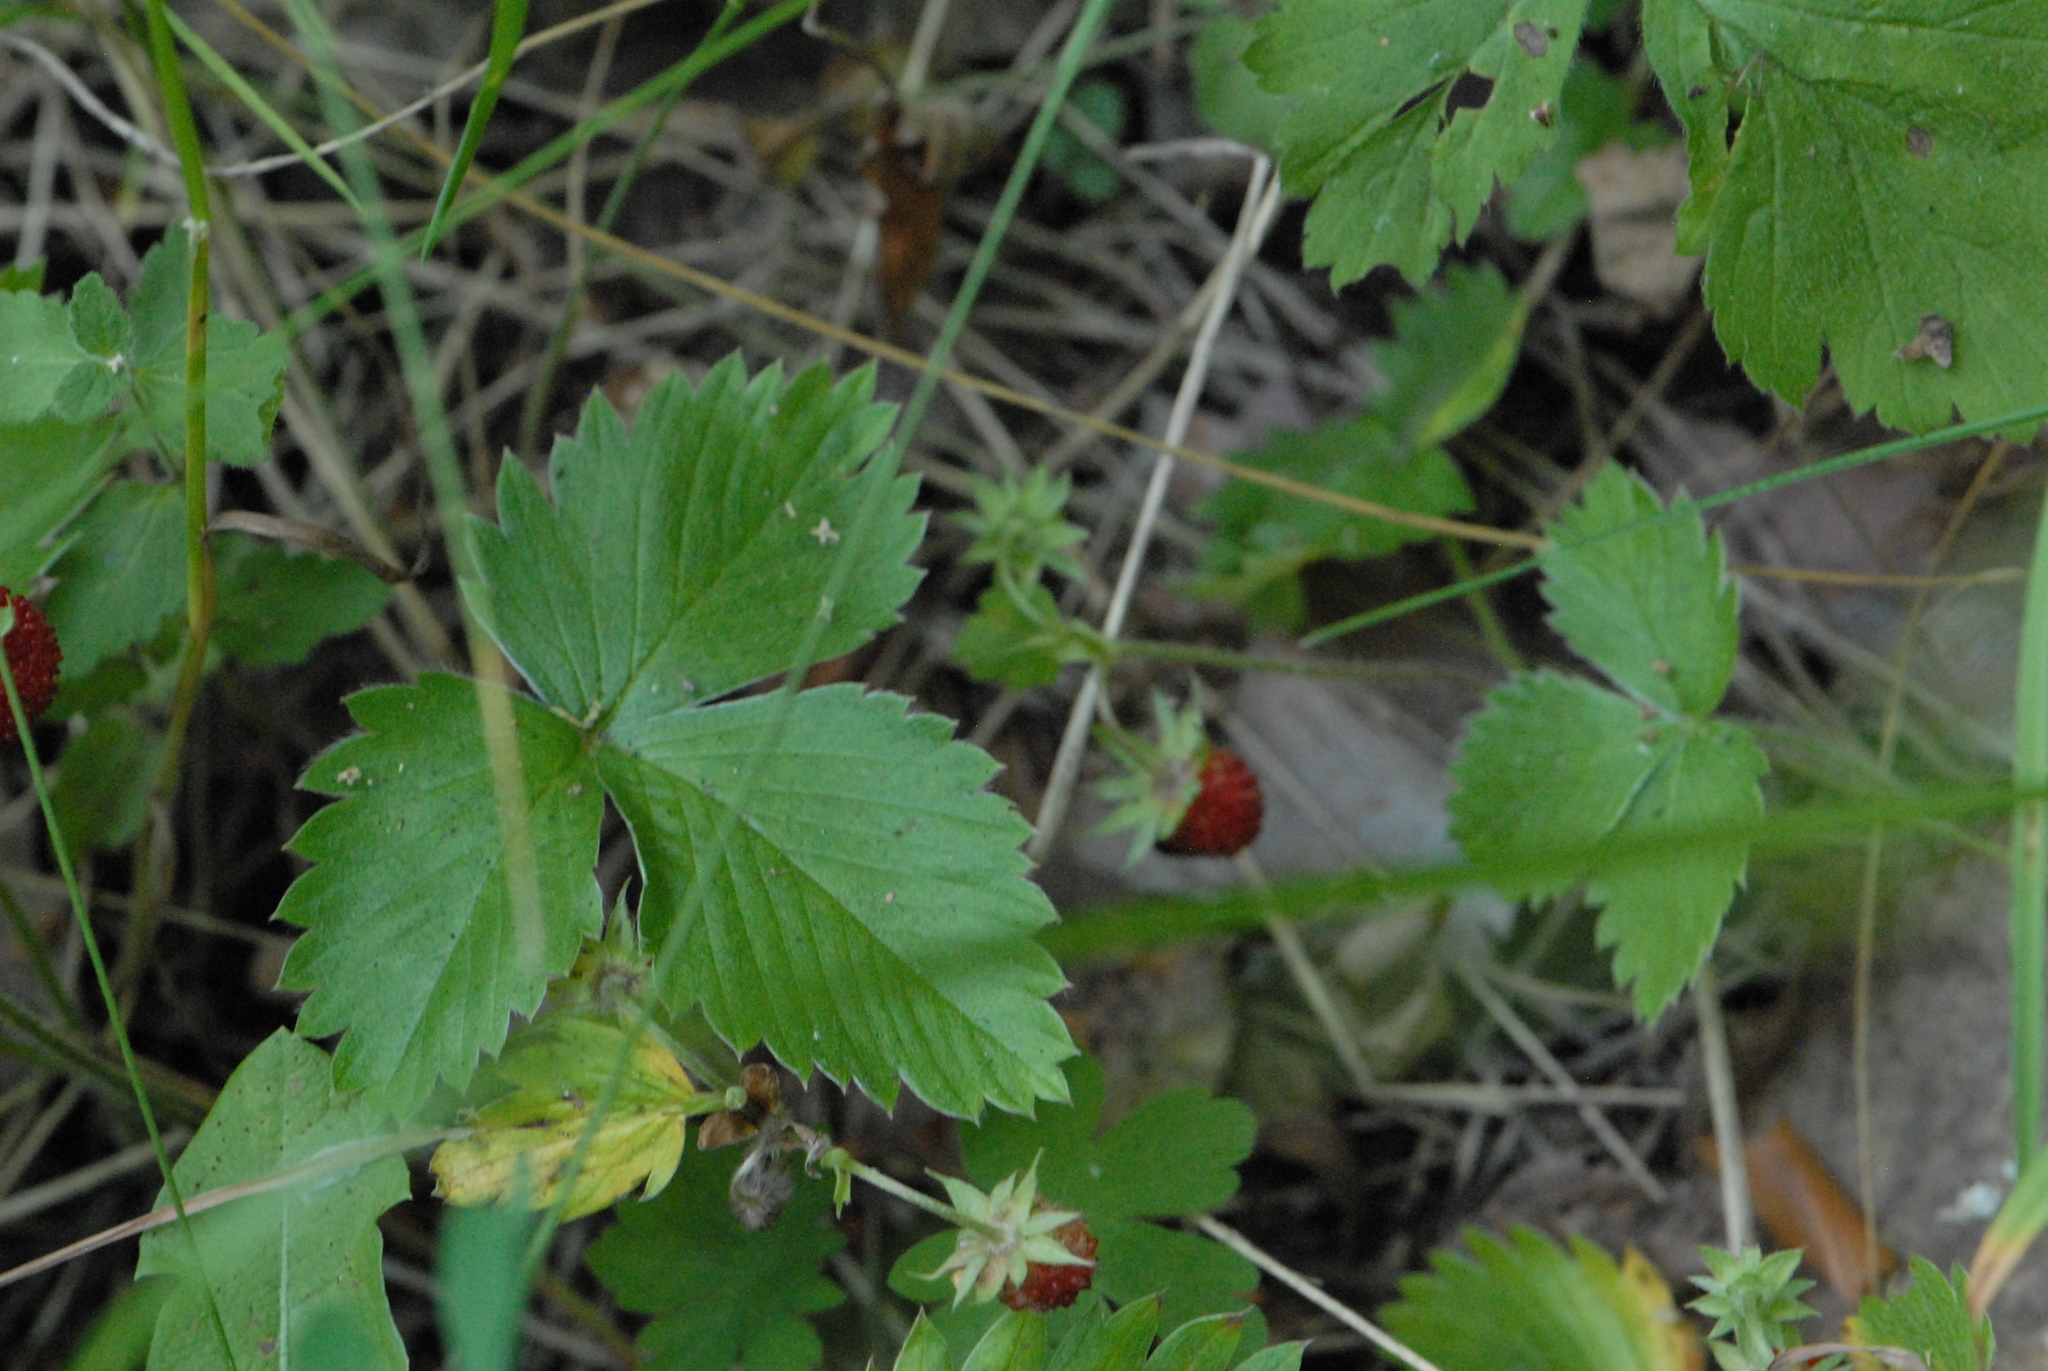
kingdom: Plantae
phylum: Tracheophyta
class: Magnoliopsida
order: Rosales
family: Rosaceae
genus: Fragaria
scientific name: Fragaria vesca
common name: Wild strawberry
